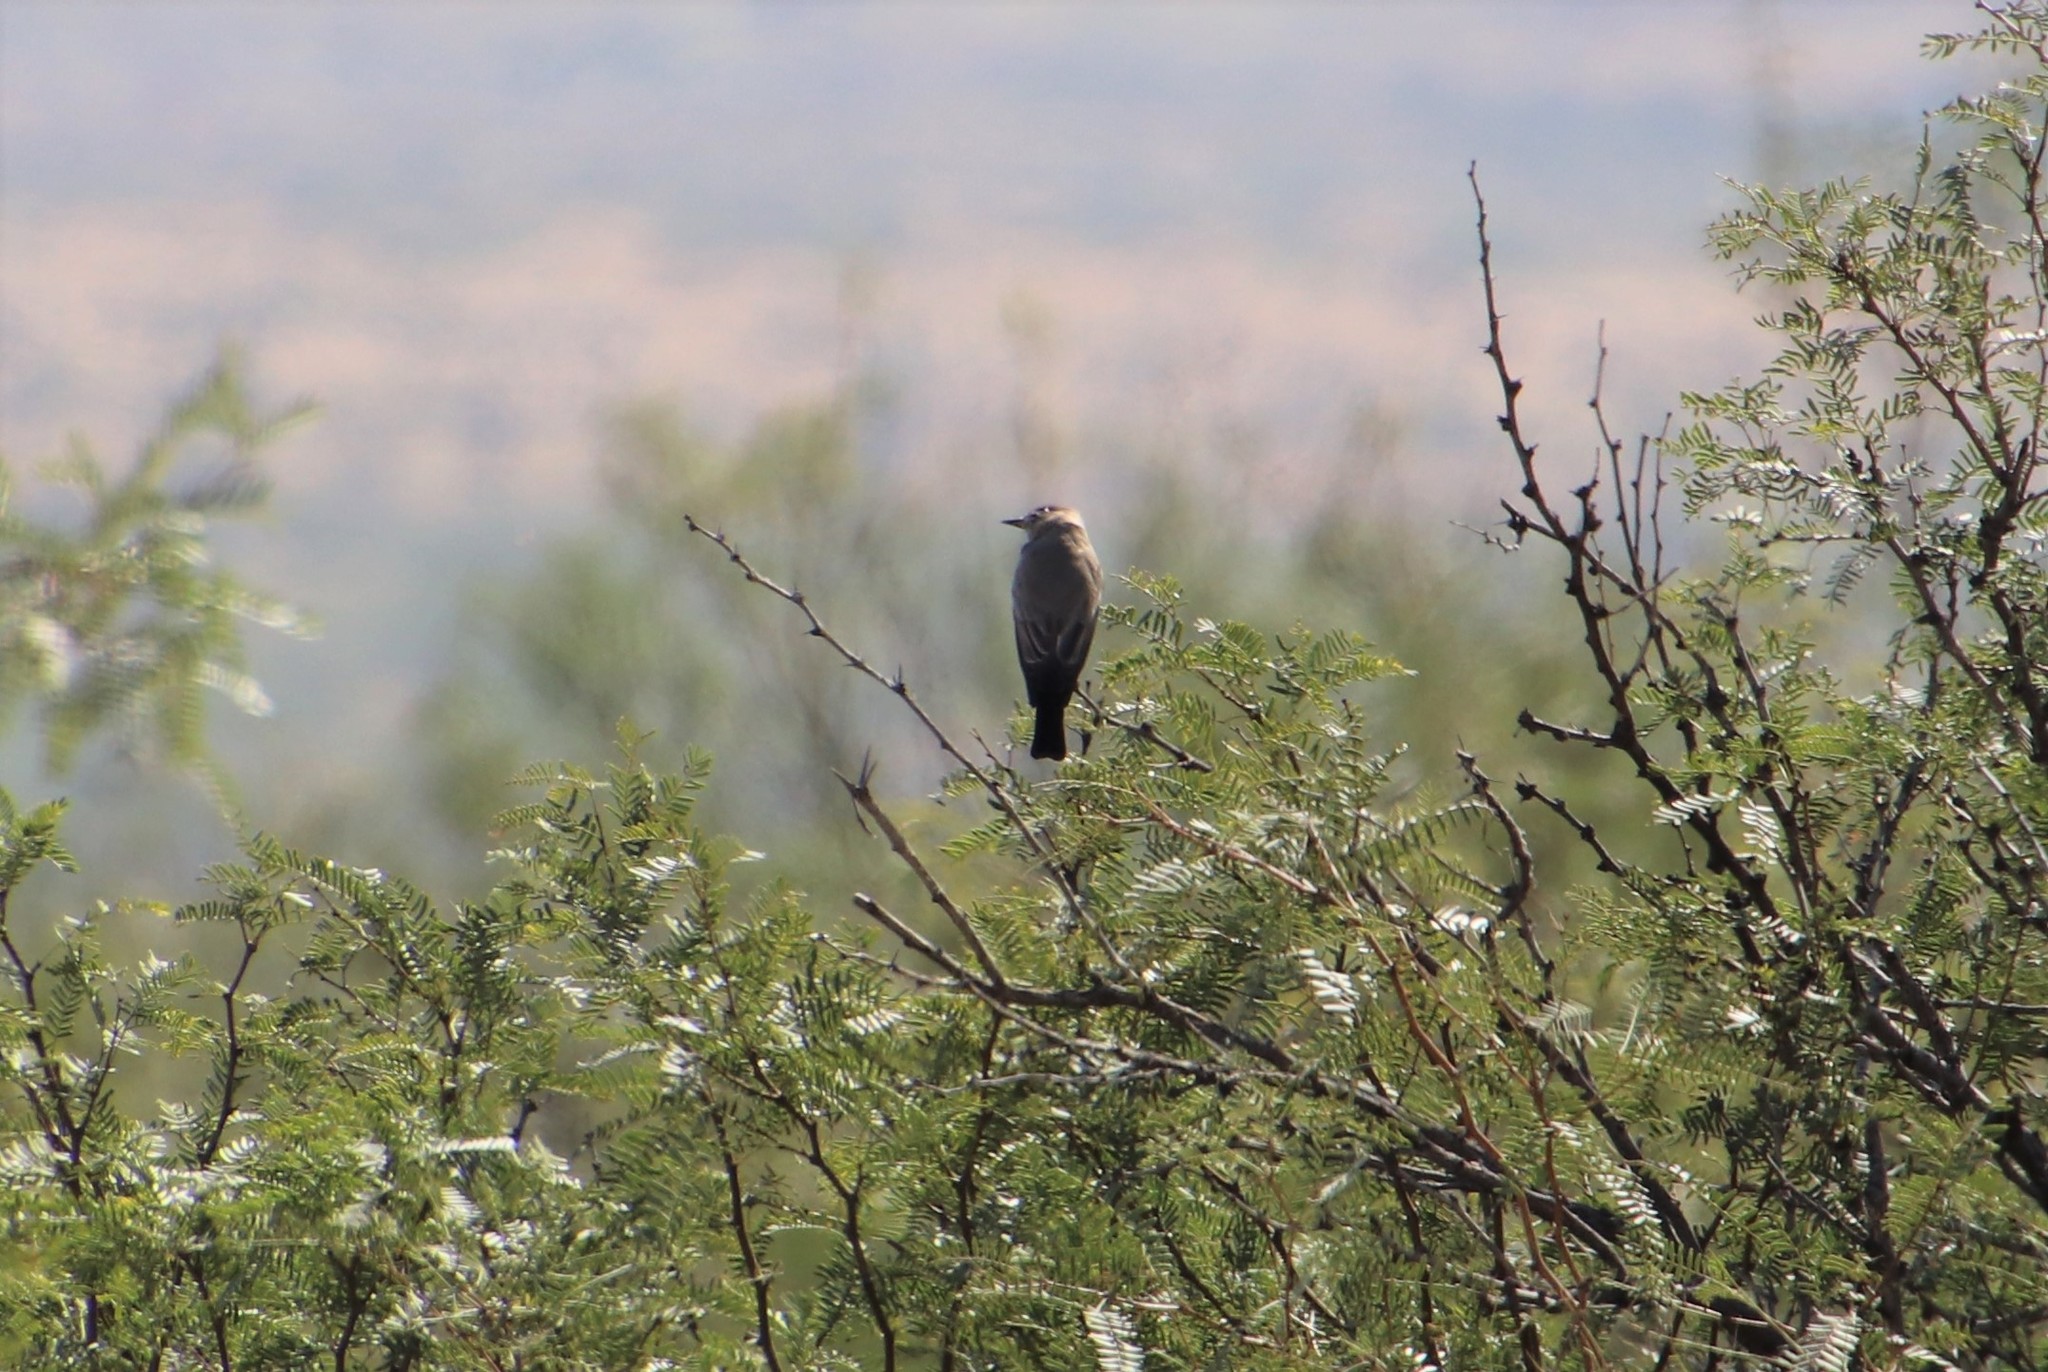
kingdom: Animalia
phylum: Chordata
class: Aves
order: Passeriformes
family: Tyrannidae
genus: Sayornis
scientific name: Sayornis saya
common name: Say's phoebe
